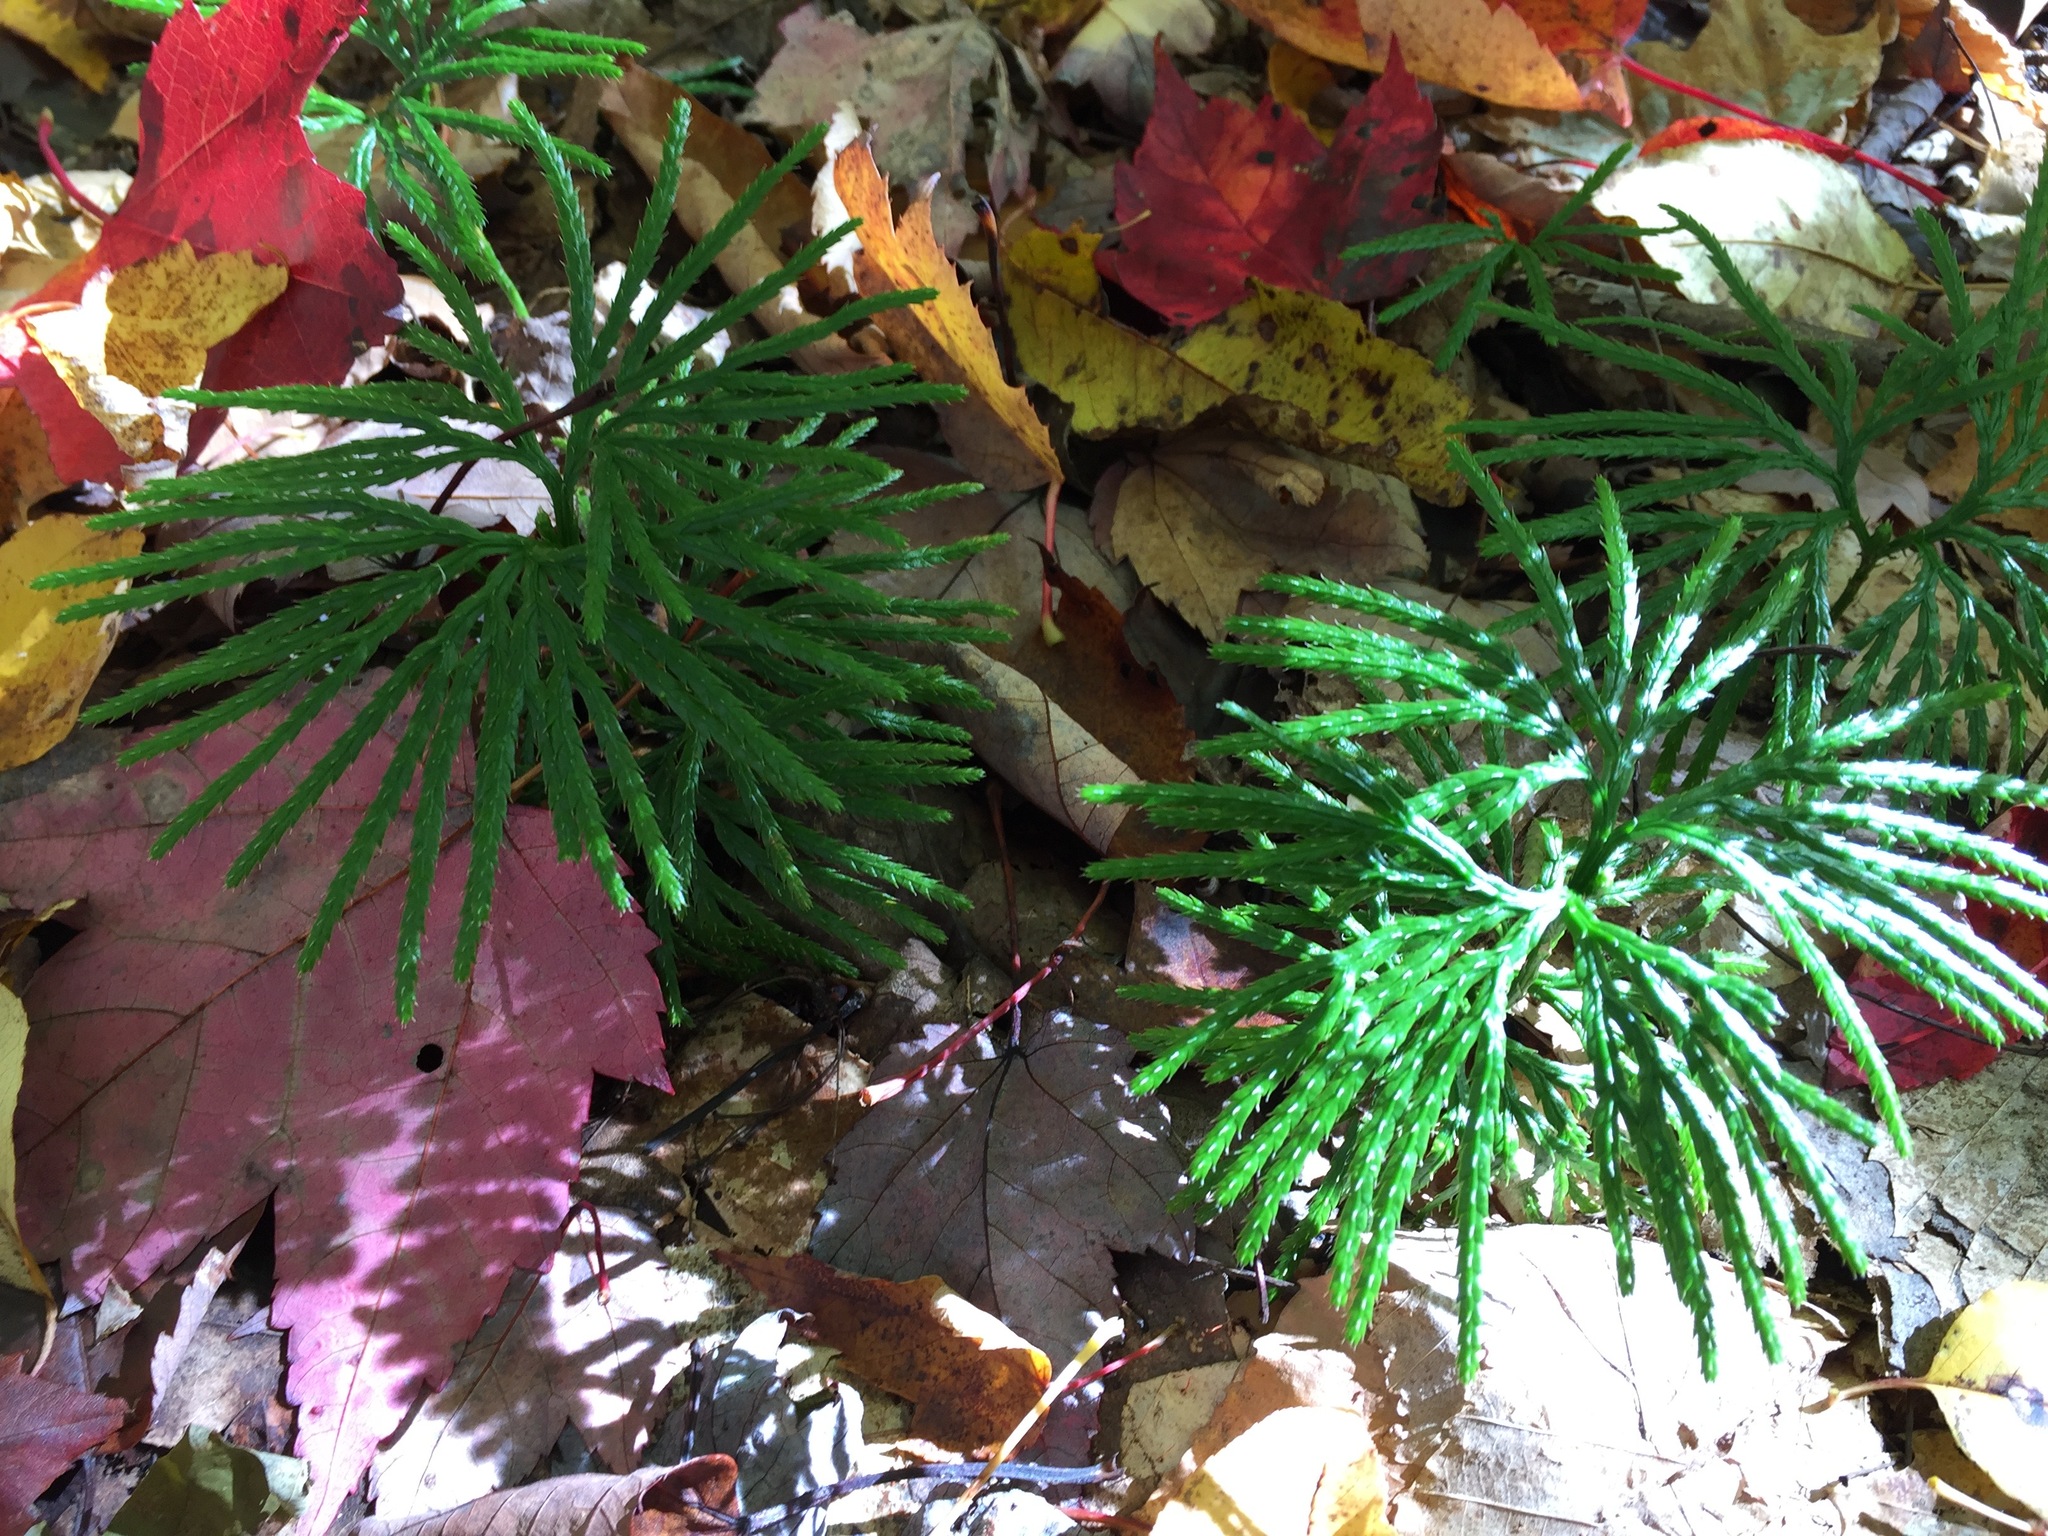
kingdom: Plantae
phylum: Tracheophyta
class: Lycopodiopsida
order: Lycopodiales
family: Lycopodiaceae
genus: Diphasiastrum
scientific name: Diphasiastrum digitatum
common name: Southern running-pine
